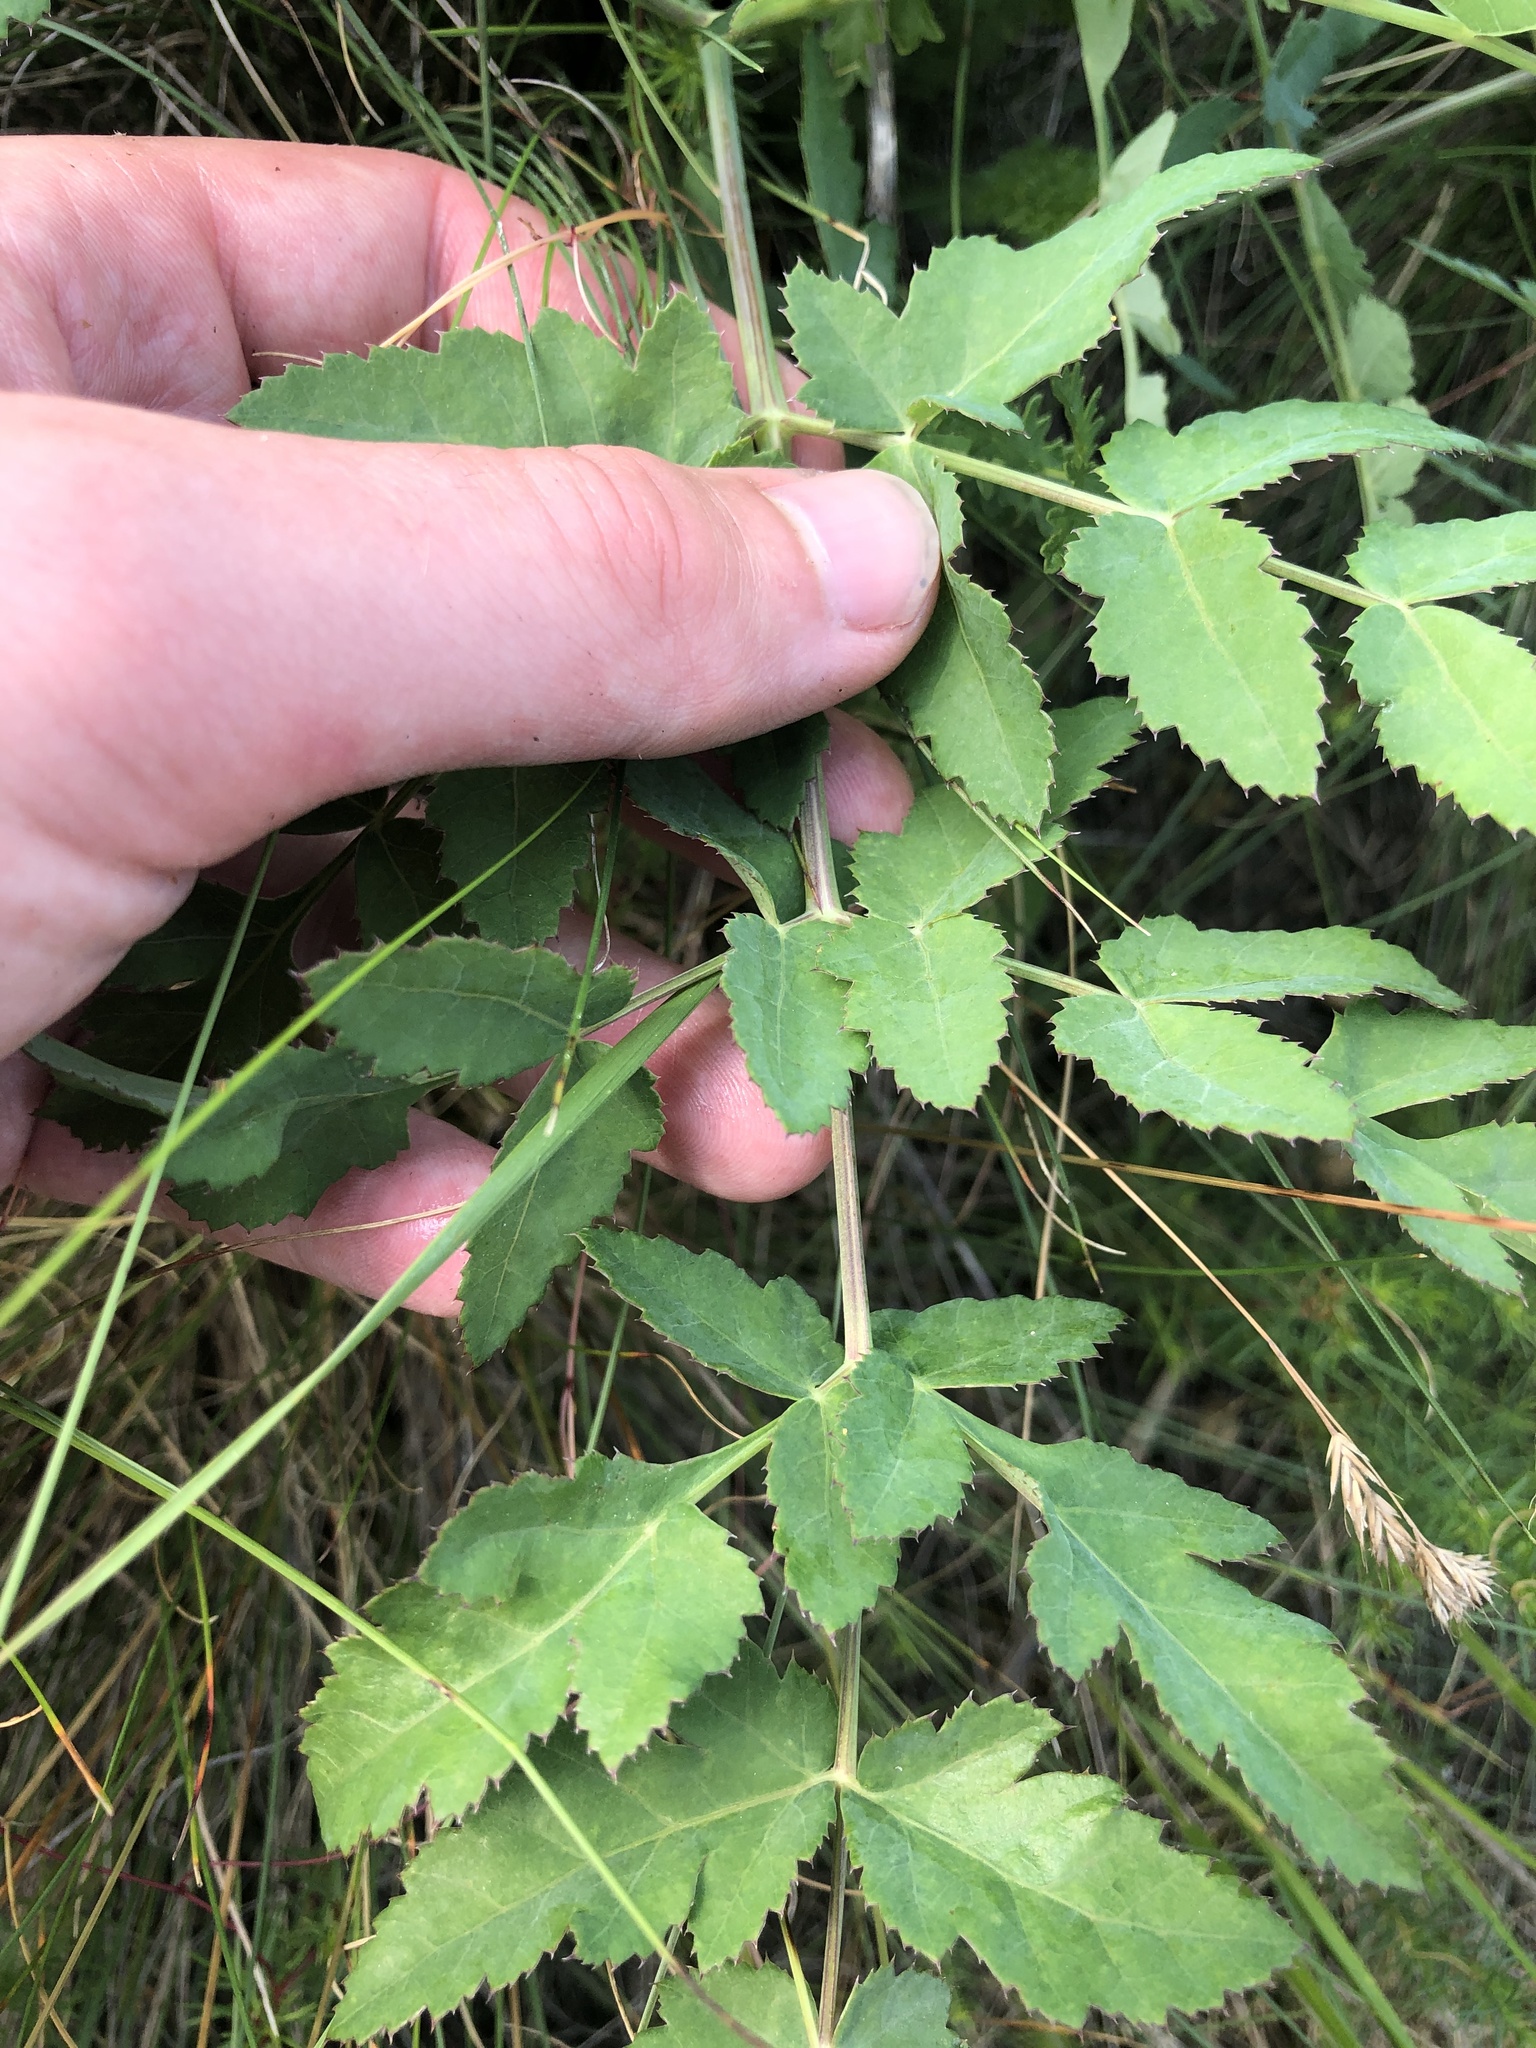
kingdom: Plantae
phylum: Tracheophyta
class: Magnoliopsida
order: Apiales
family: Apiaceae
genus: Cervaria
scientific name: Cervaria rivini
